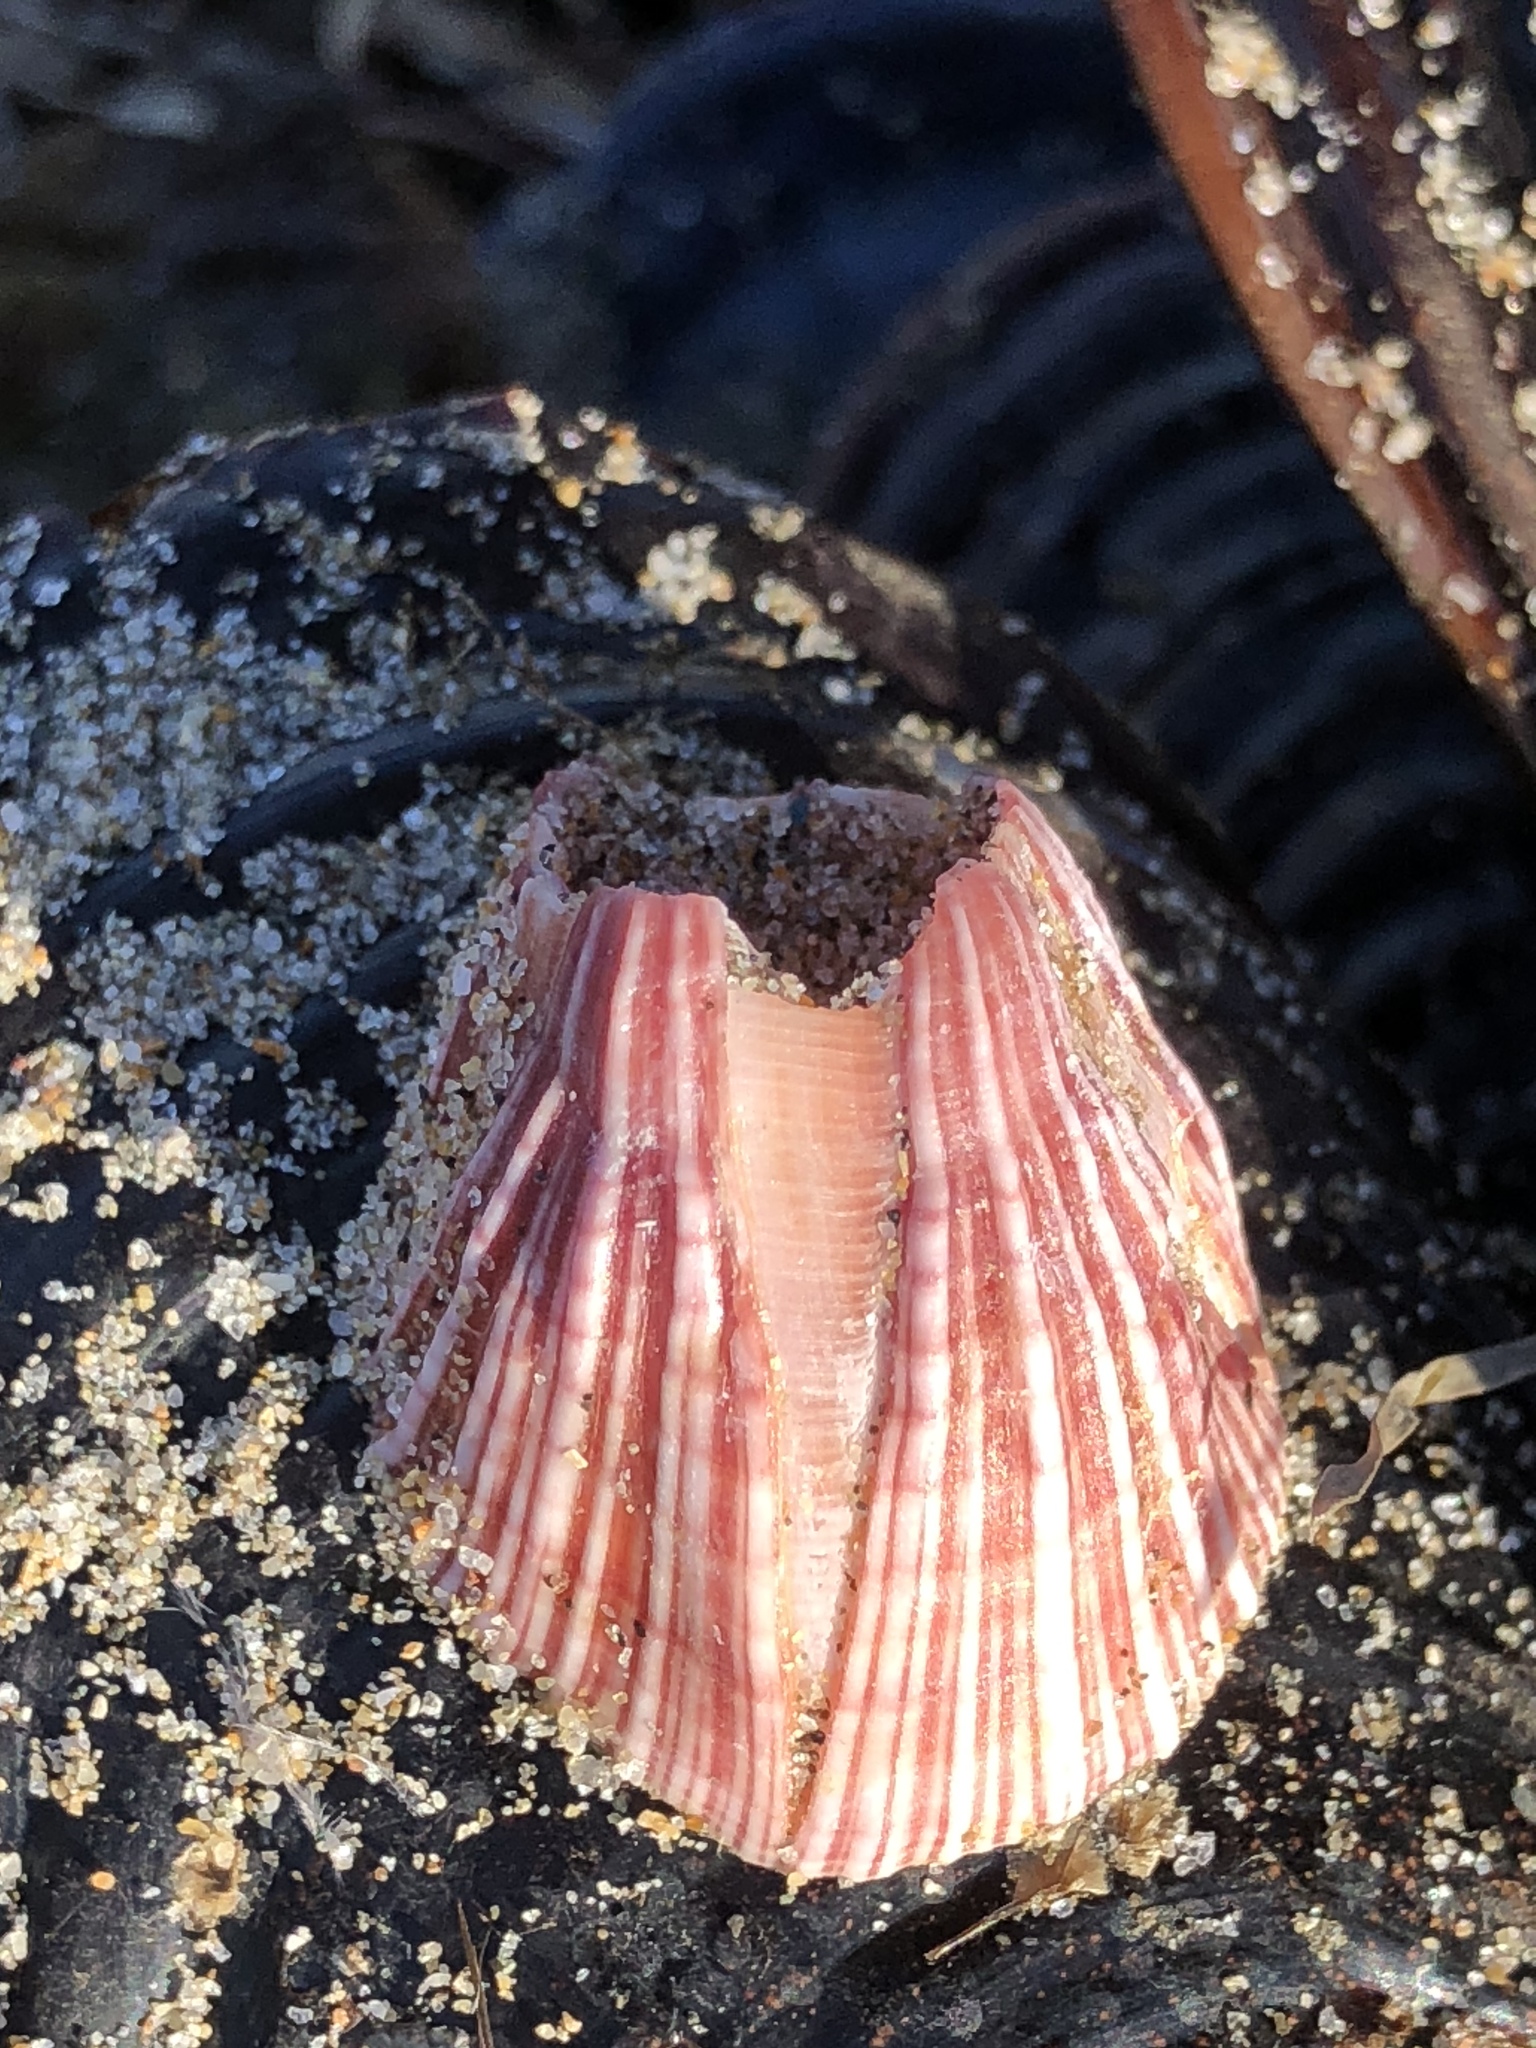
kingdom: Animalia
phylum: Arthropoda
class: Maxillopoda
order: Sessilia
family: Balanidae
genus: Megabalanus
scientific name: Megabalanus californicus
